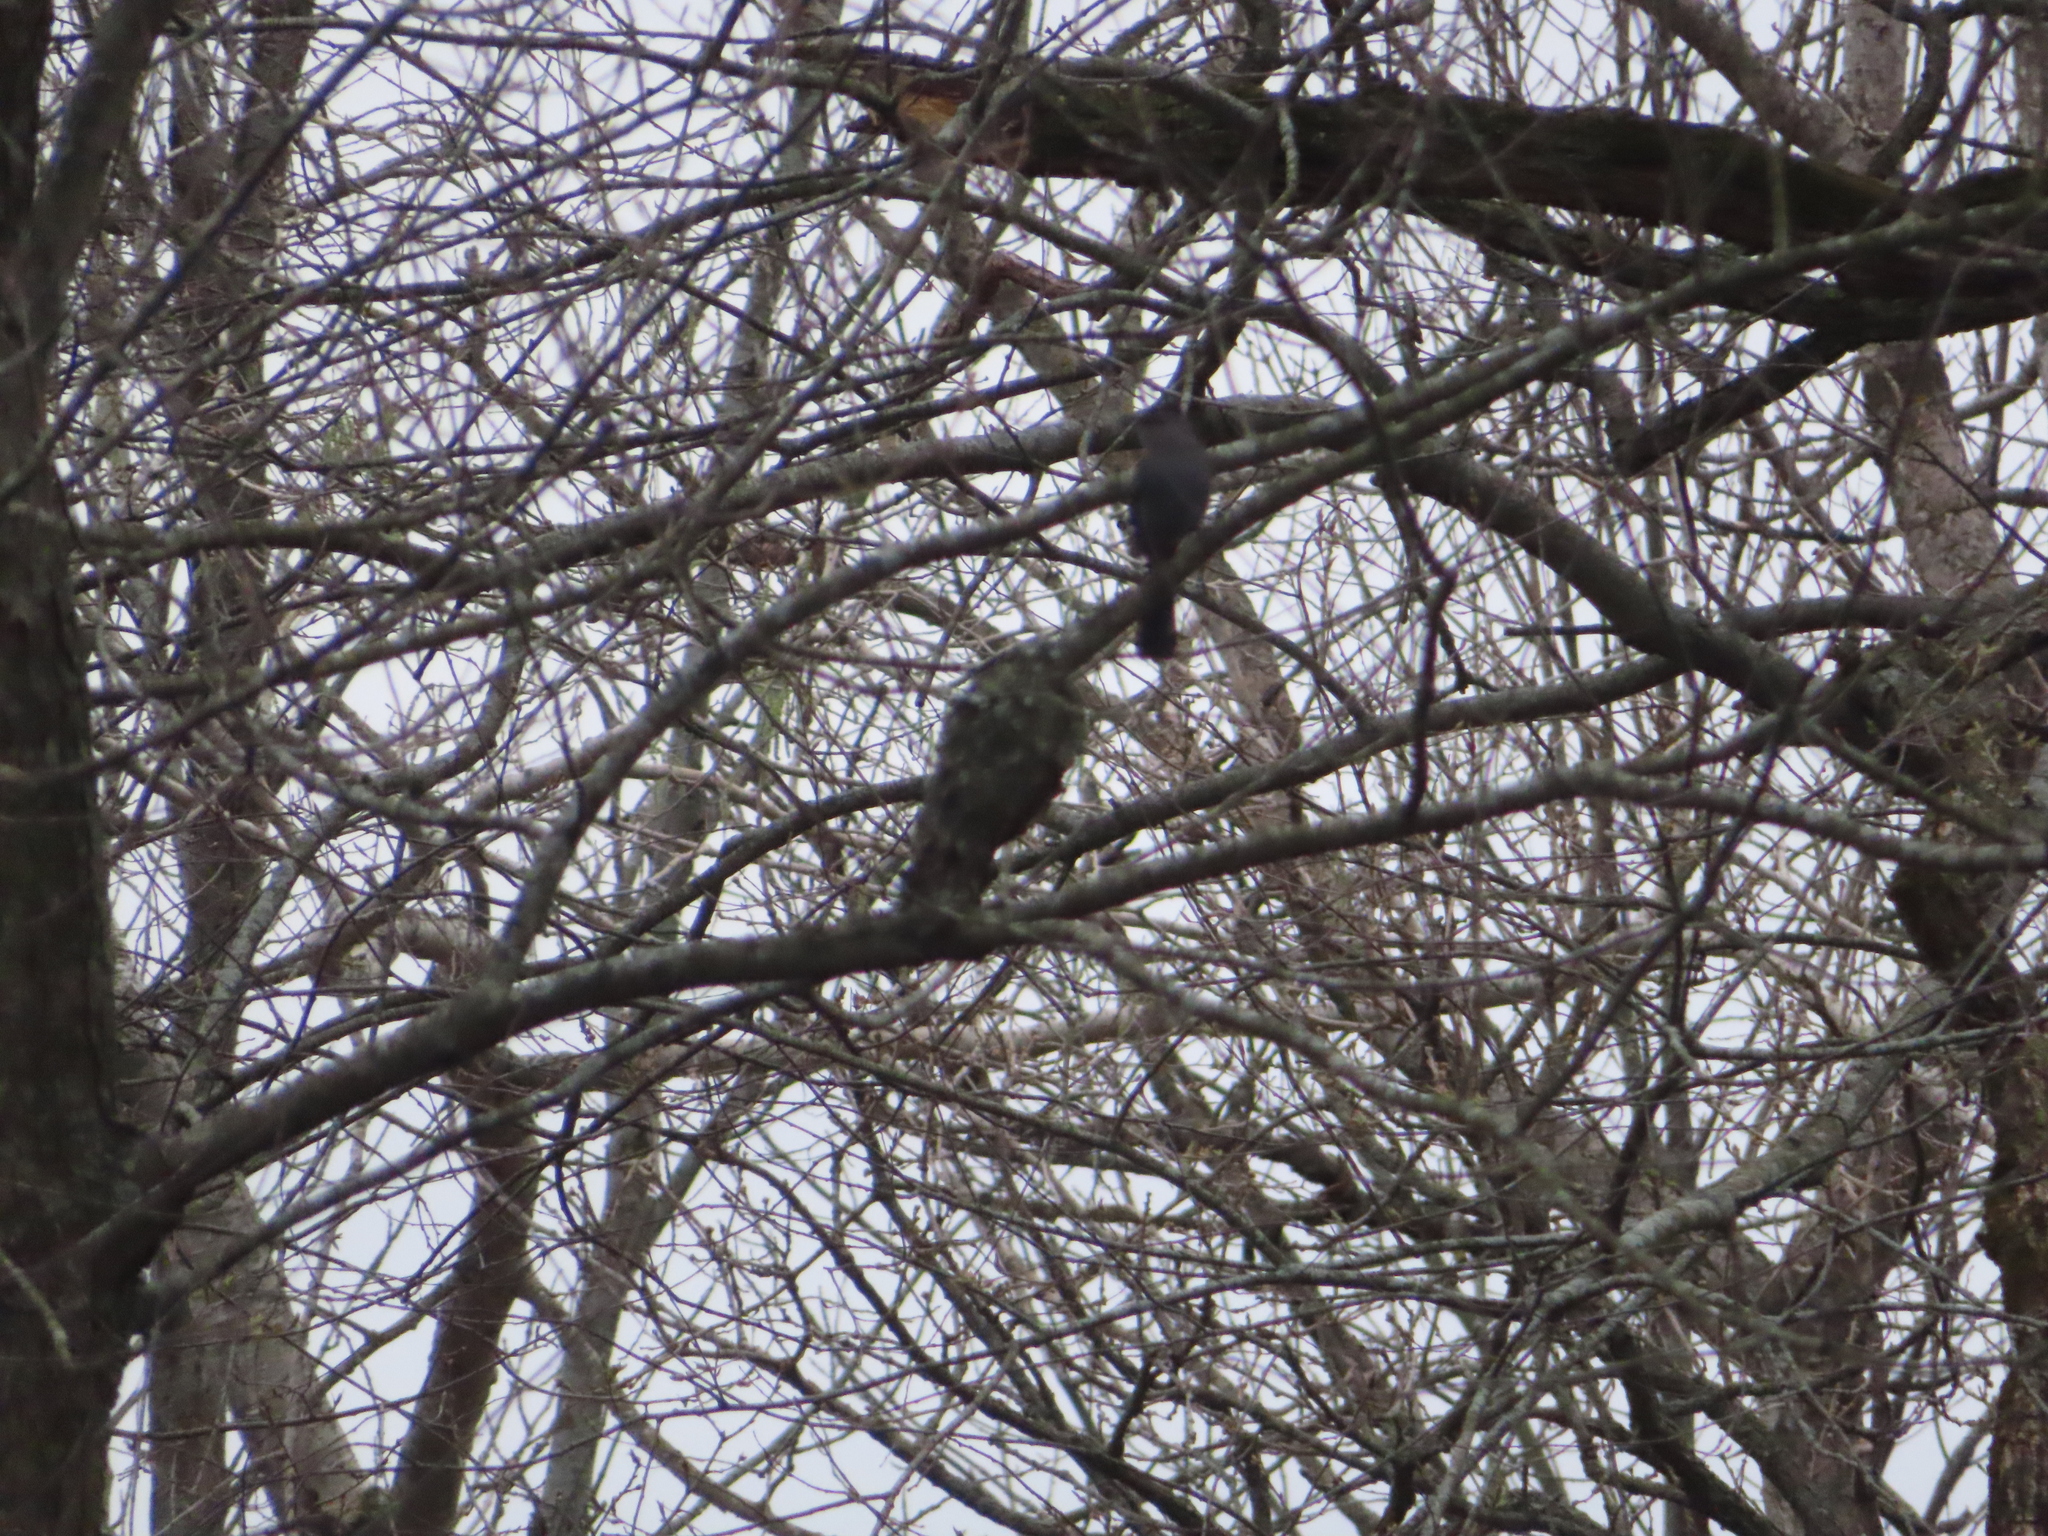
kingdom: Animalia
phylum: Chordata
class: Aves
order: Passeriformes
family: Mimidae
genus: Dumetella
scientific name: Dumetella carolinensis
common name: Gray catbird
